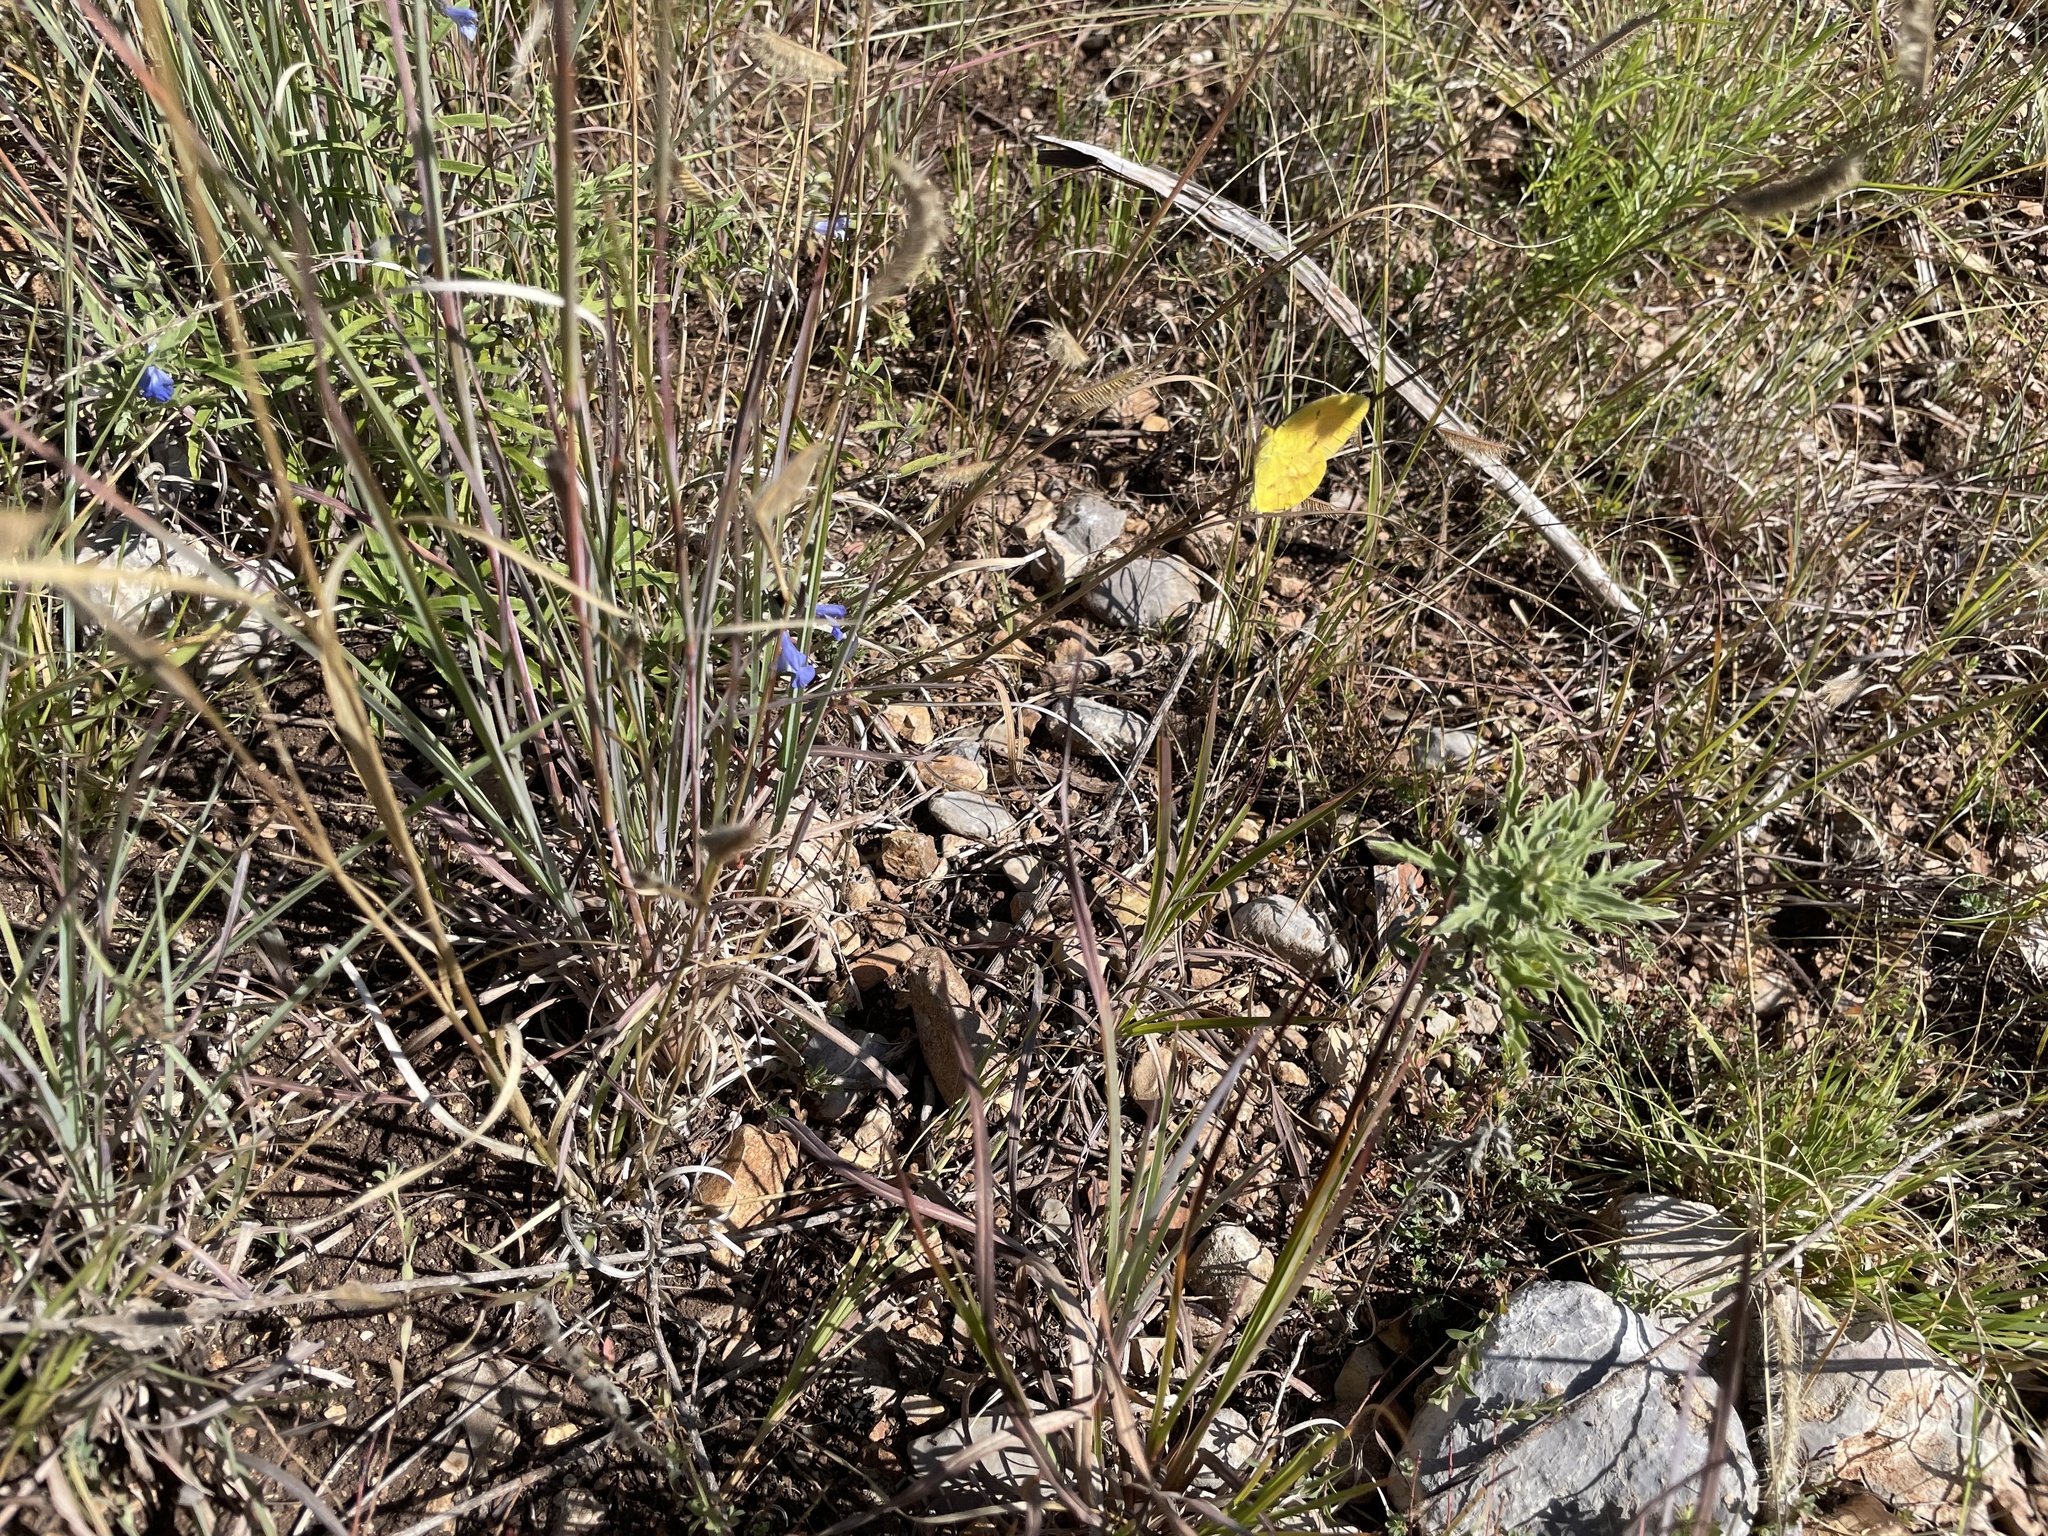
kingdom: Animalia
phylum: Arthropoda
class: Insecta
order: Lepidoptera
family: Pieridae
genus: Abaeis
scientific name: Abaeis nicippe
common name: Sleepy orange
